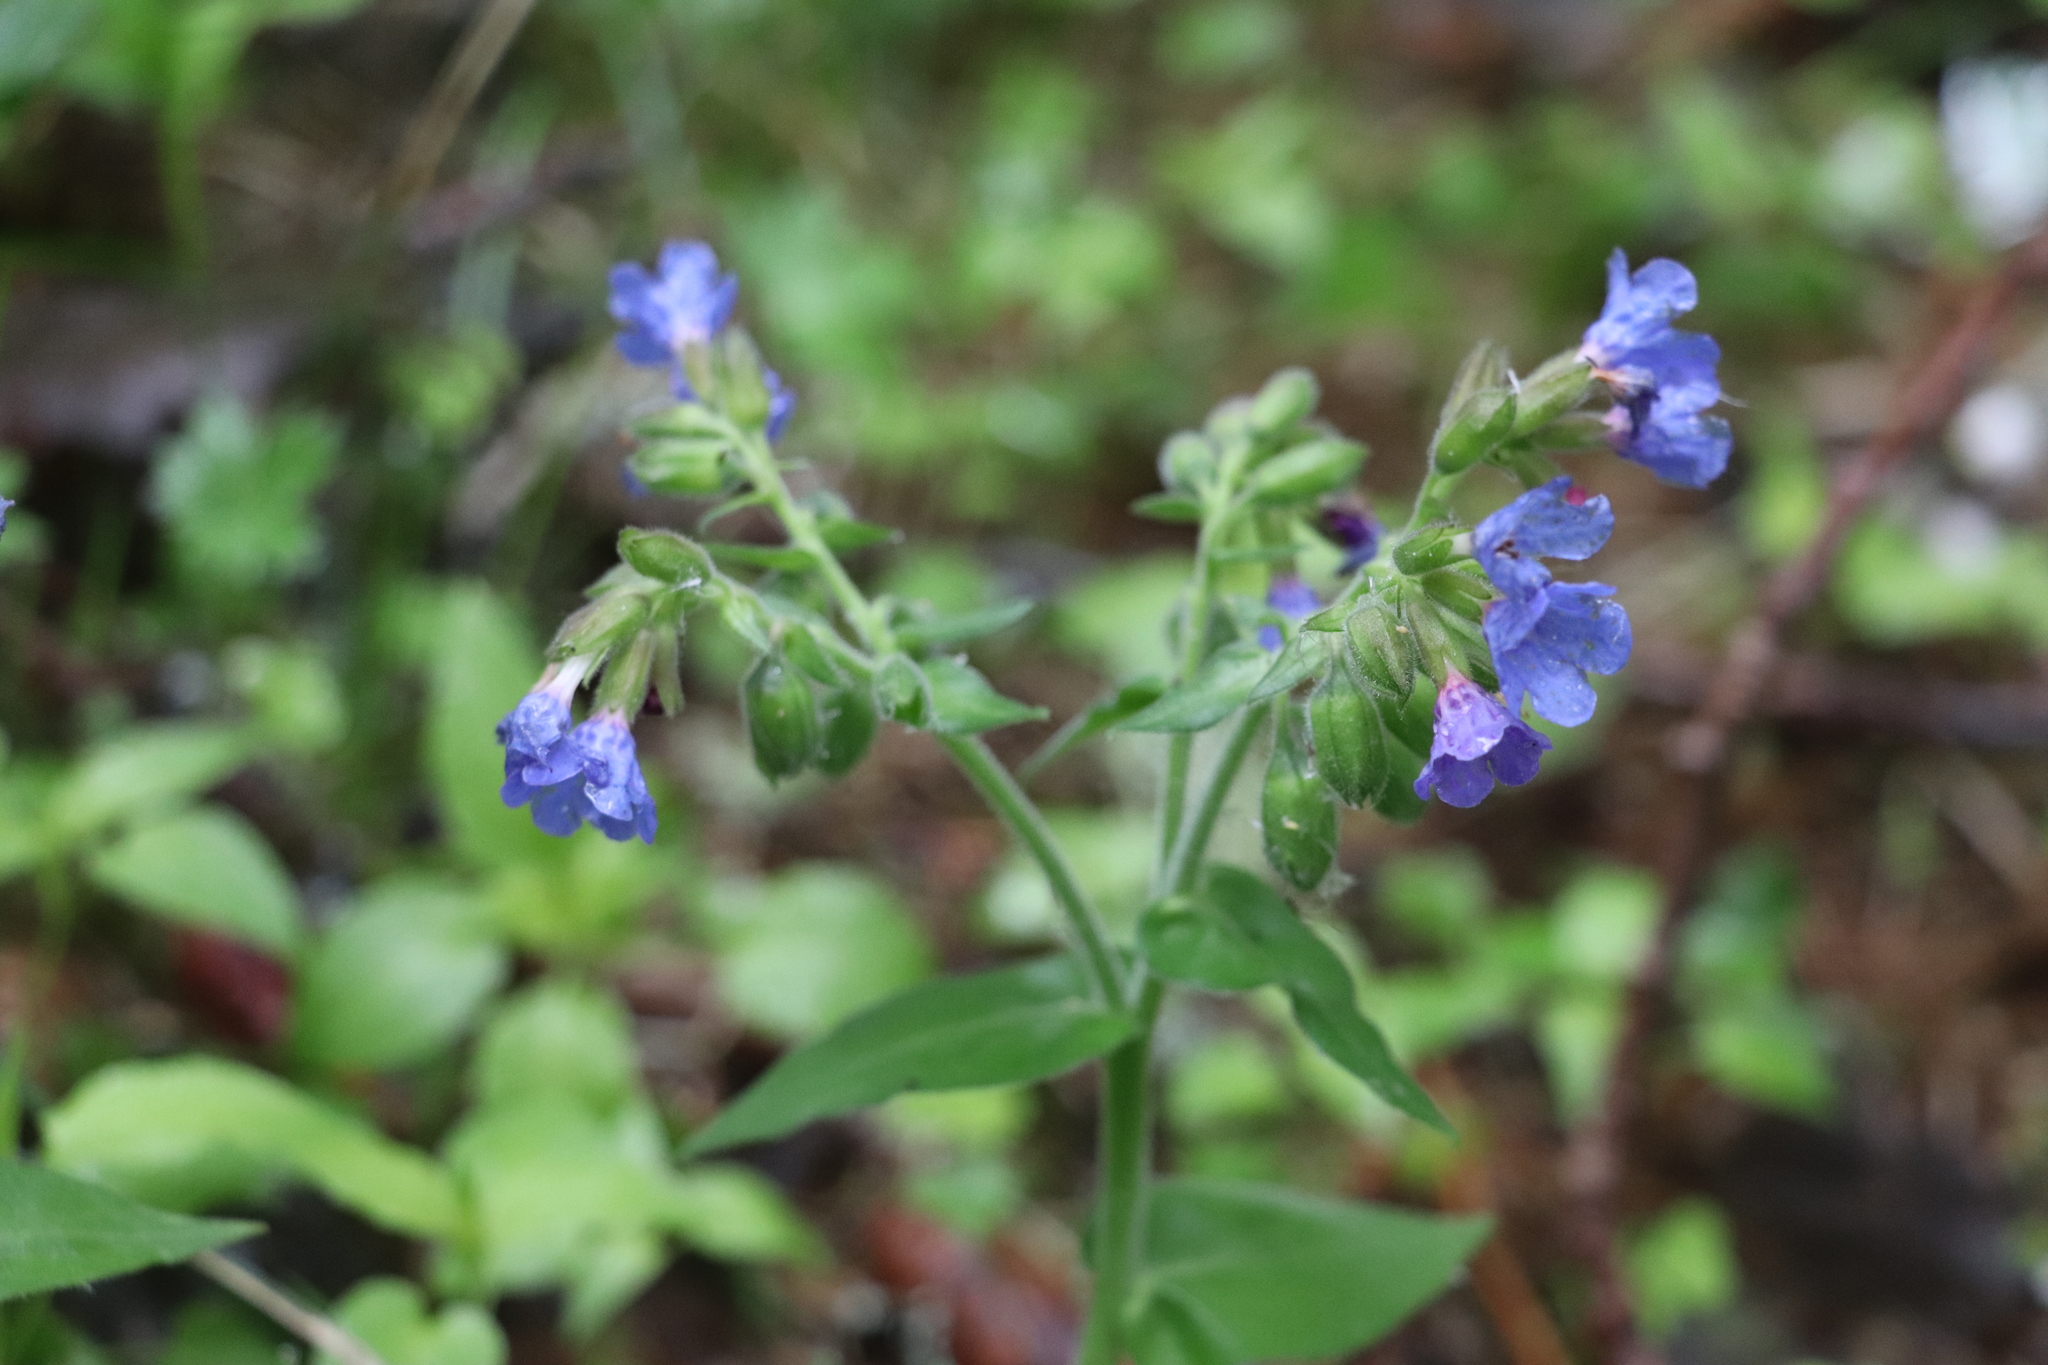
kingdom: Plantae
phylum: Tracheophyta
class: Magnoliopsida
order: Boraginales
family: Boraginaceae
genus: Pulmonaria
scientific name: Pulmonaria mollis
